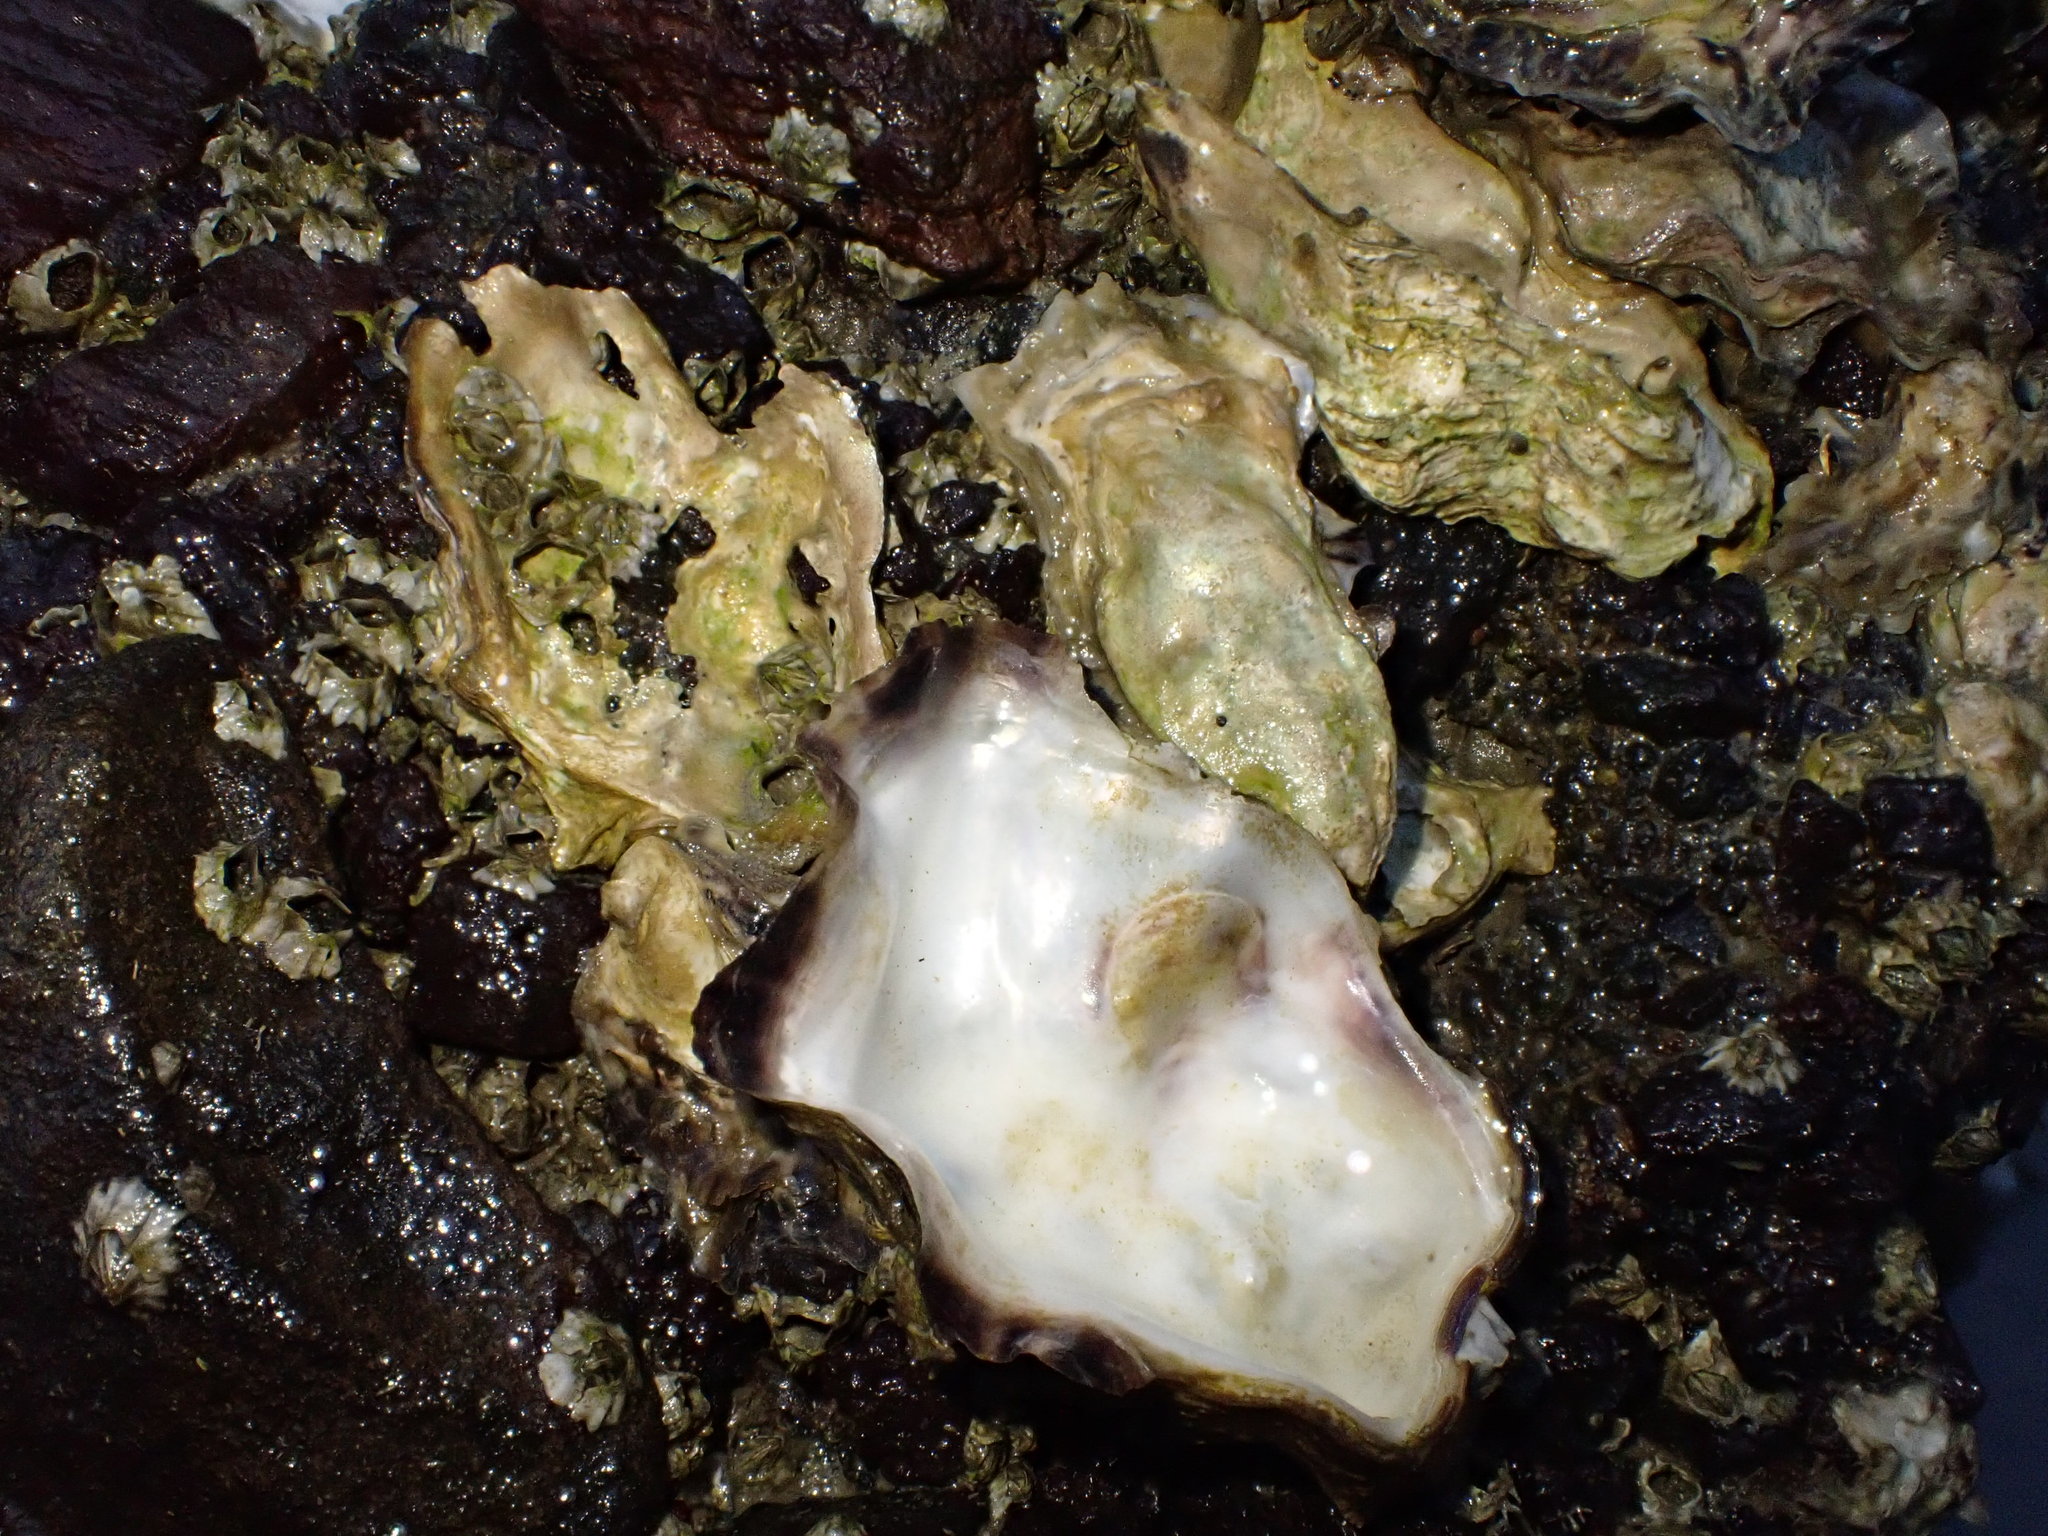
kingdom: Animalia
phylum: Mollusca
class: Bivalvia
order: Ostreida
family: Ostreidae
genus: Magallana
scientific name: Magallana gigas
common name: Pacific oyster
